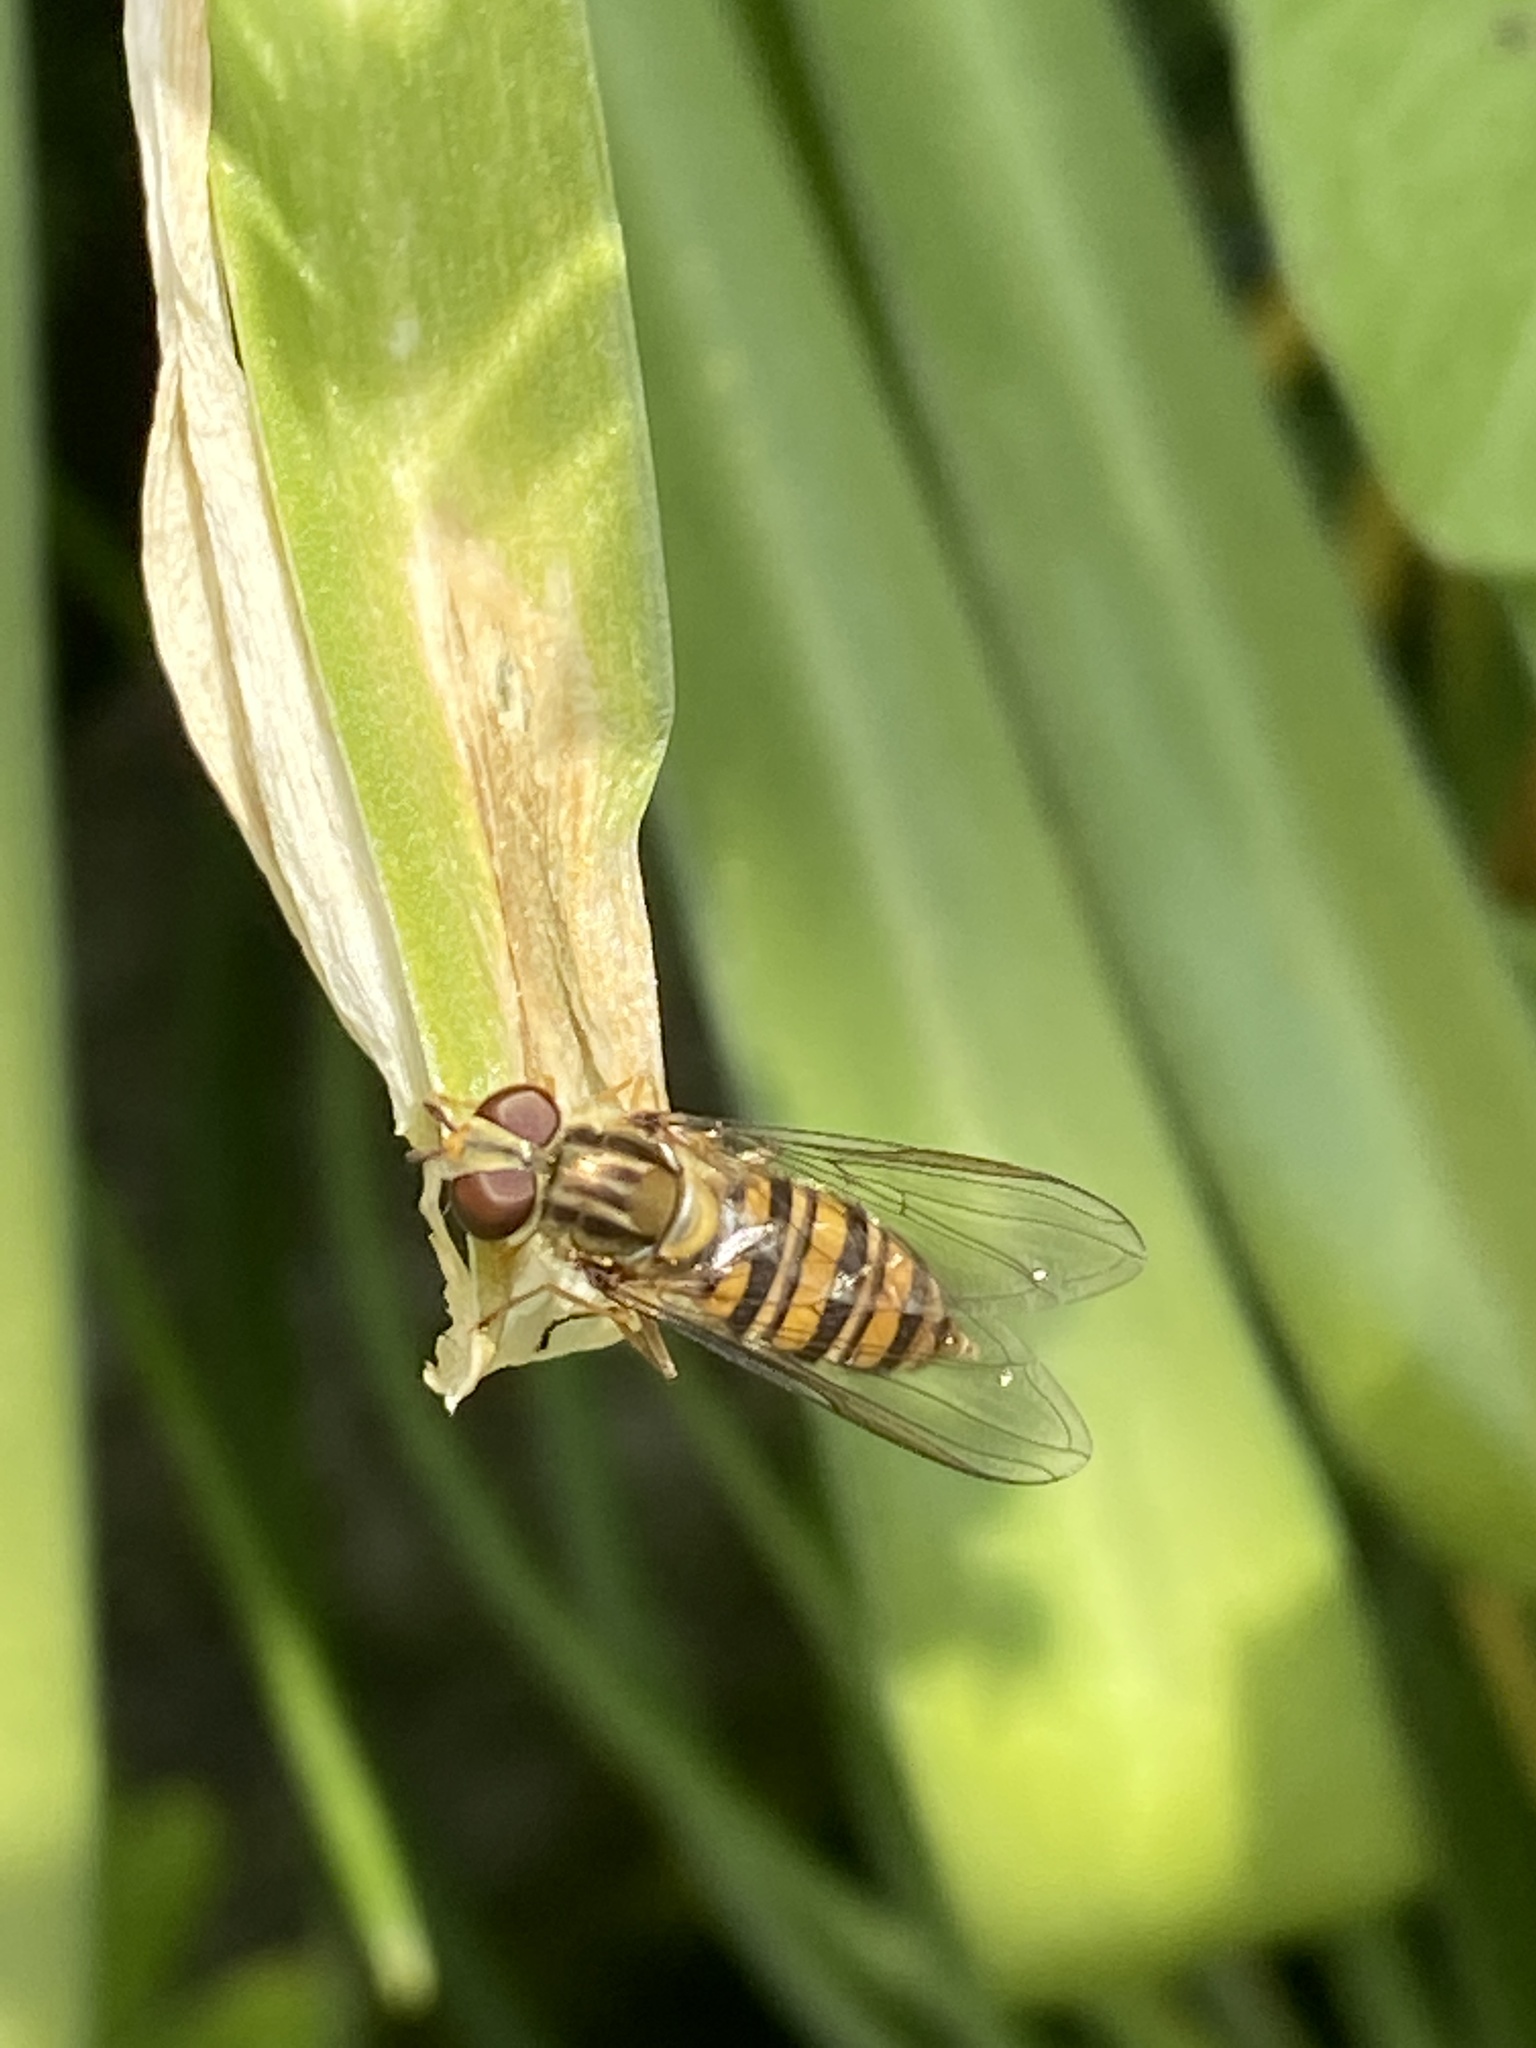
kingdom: Animalia
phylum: Arthropoda
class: Insecta
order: Diptera
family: Syrphidae
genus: Episyrphus
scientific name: Episyrphus balteatus
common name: Marmalade hoverfly
